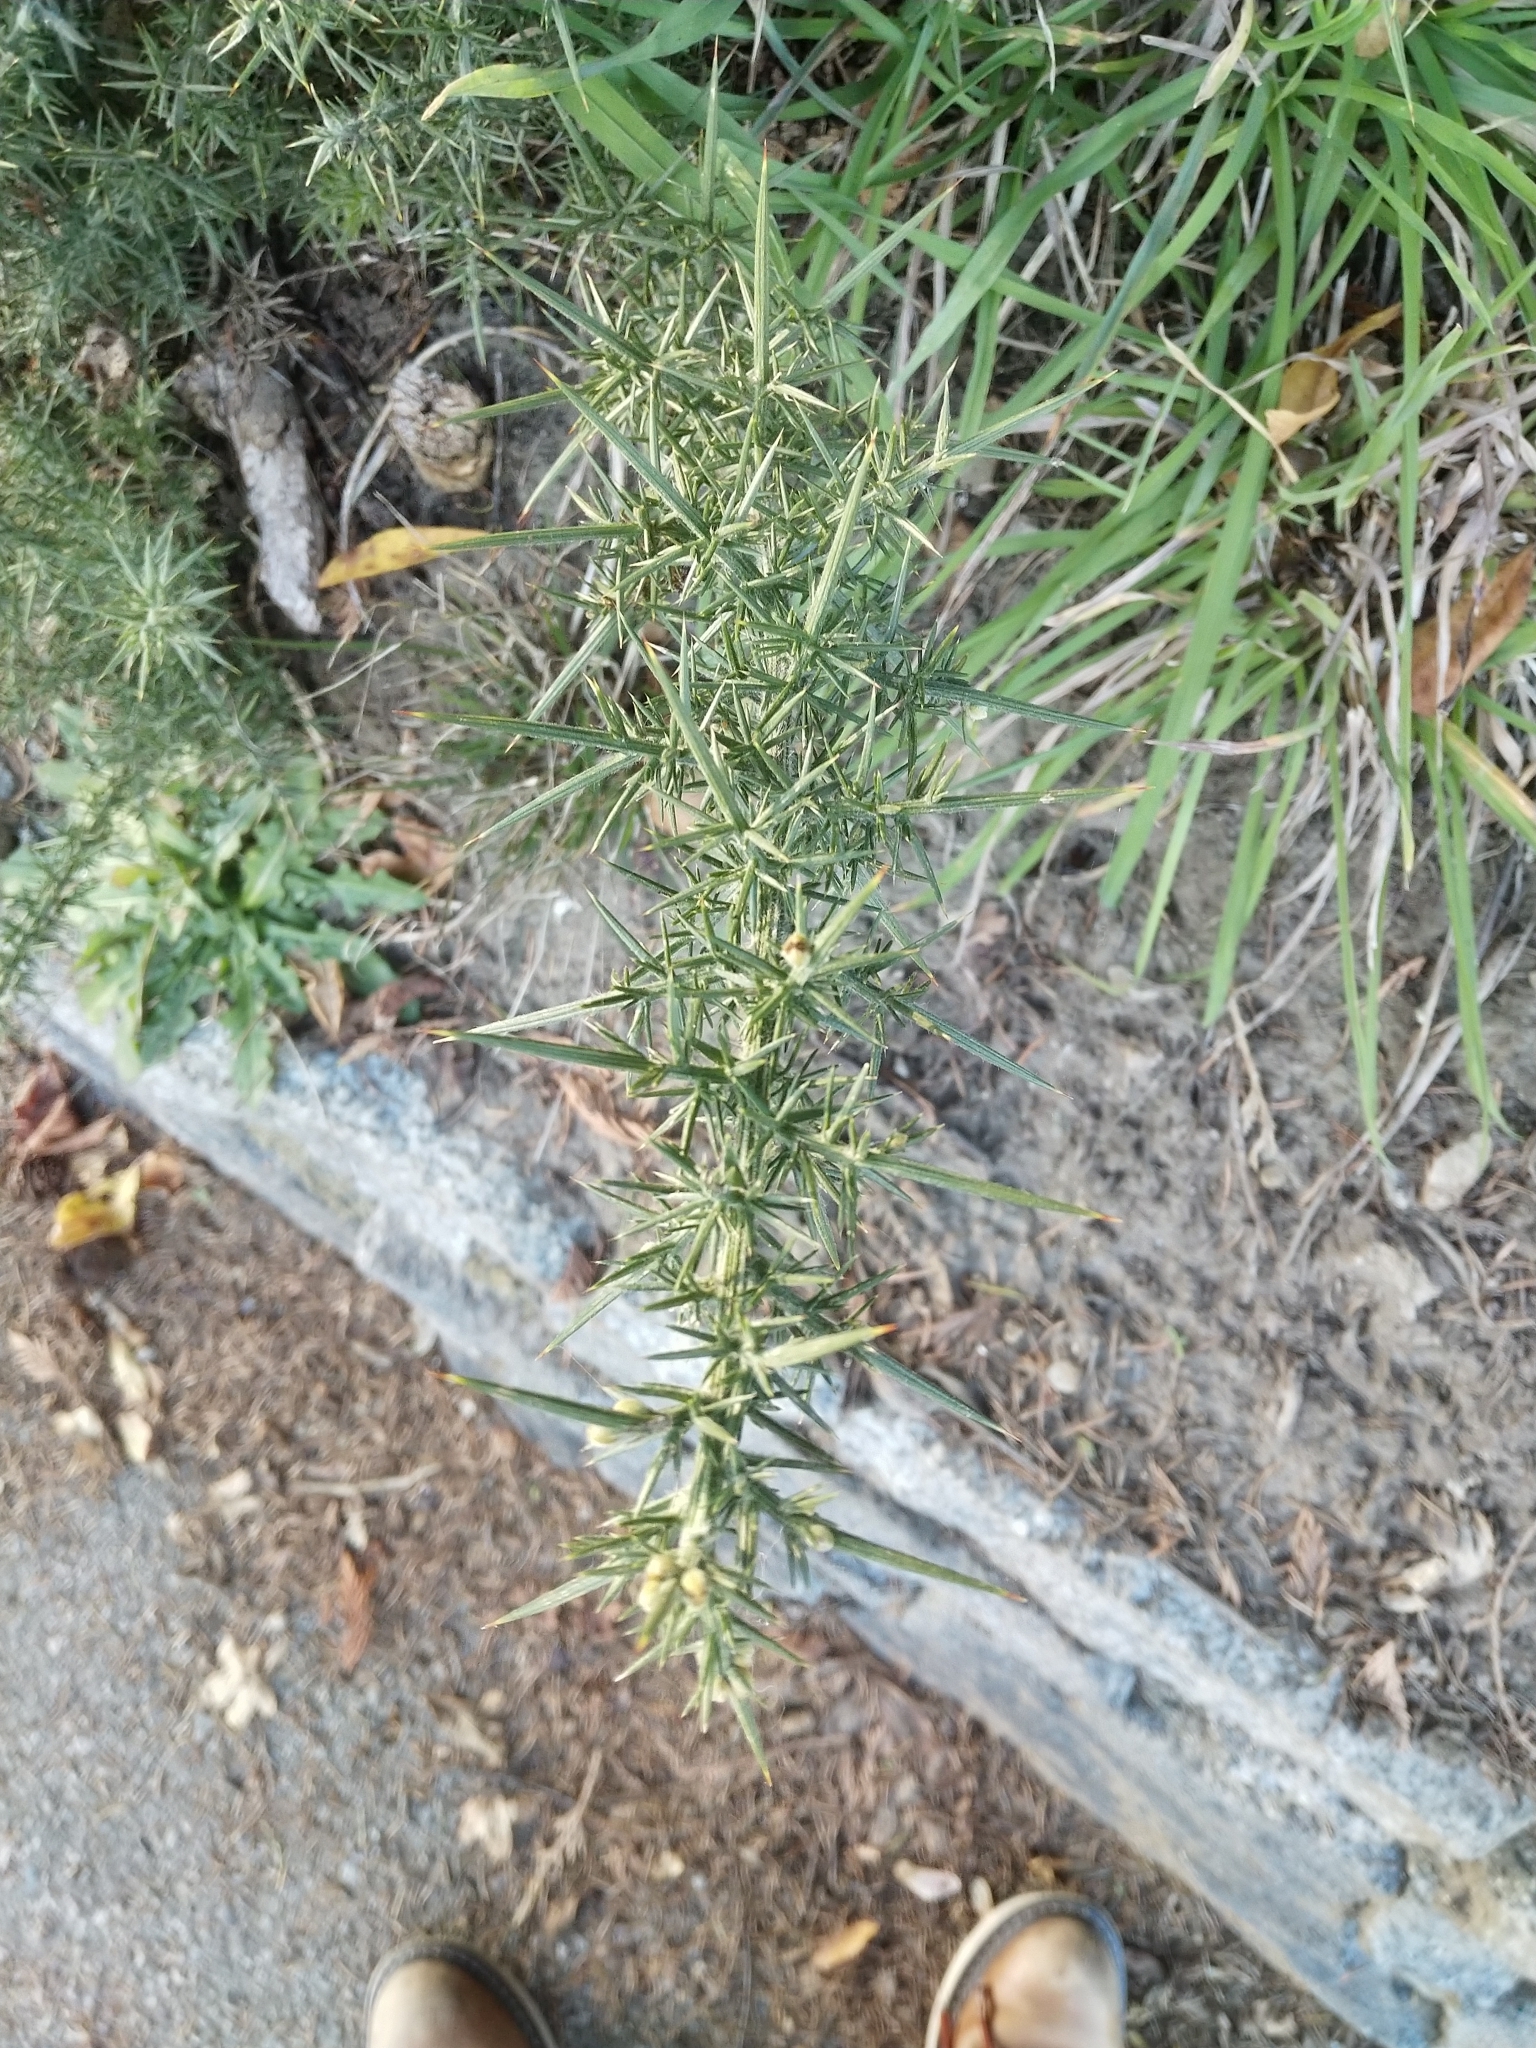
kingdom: Plantae
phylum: Tracheophyta
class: Magnoliopsida
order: Fabales
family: Fabaceae
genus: Ulex
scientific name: Ulex europaeus
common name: Common gorse
